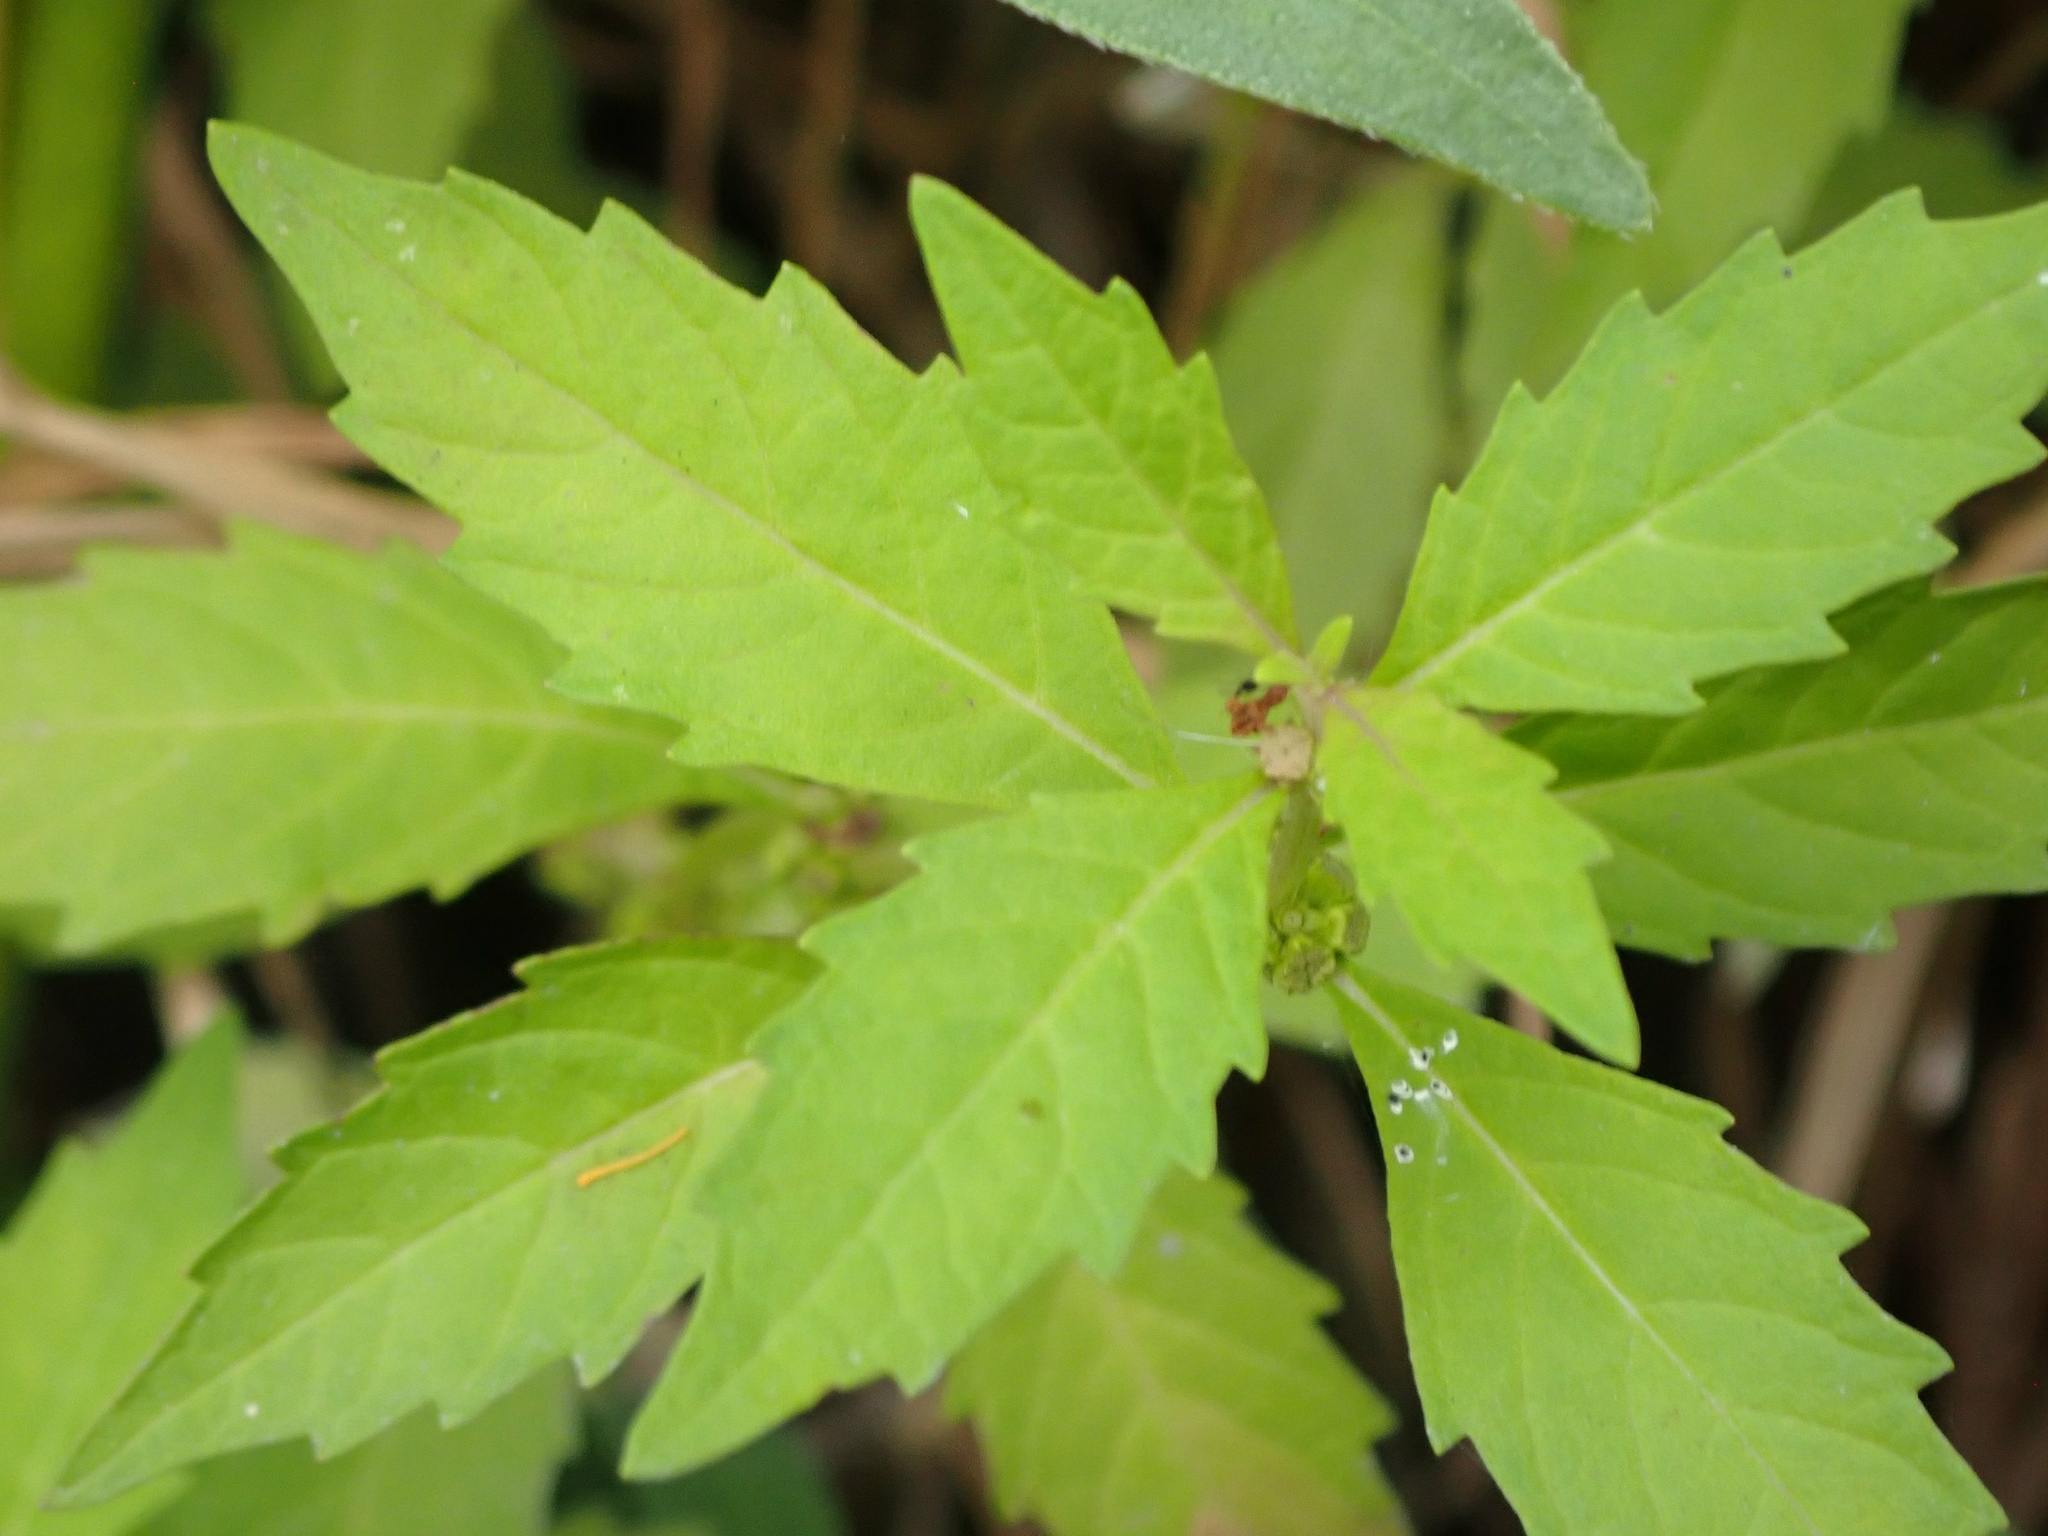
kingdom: Plantae
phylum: Tracheophyta
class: Magnoliopsida
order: Lamiales
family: Lamiaceae
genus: Lycopus
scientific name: Lycopus uniflorus
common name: Northern bugleweed
